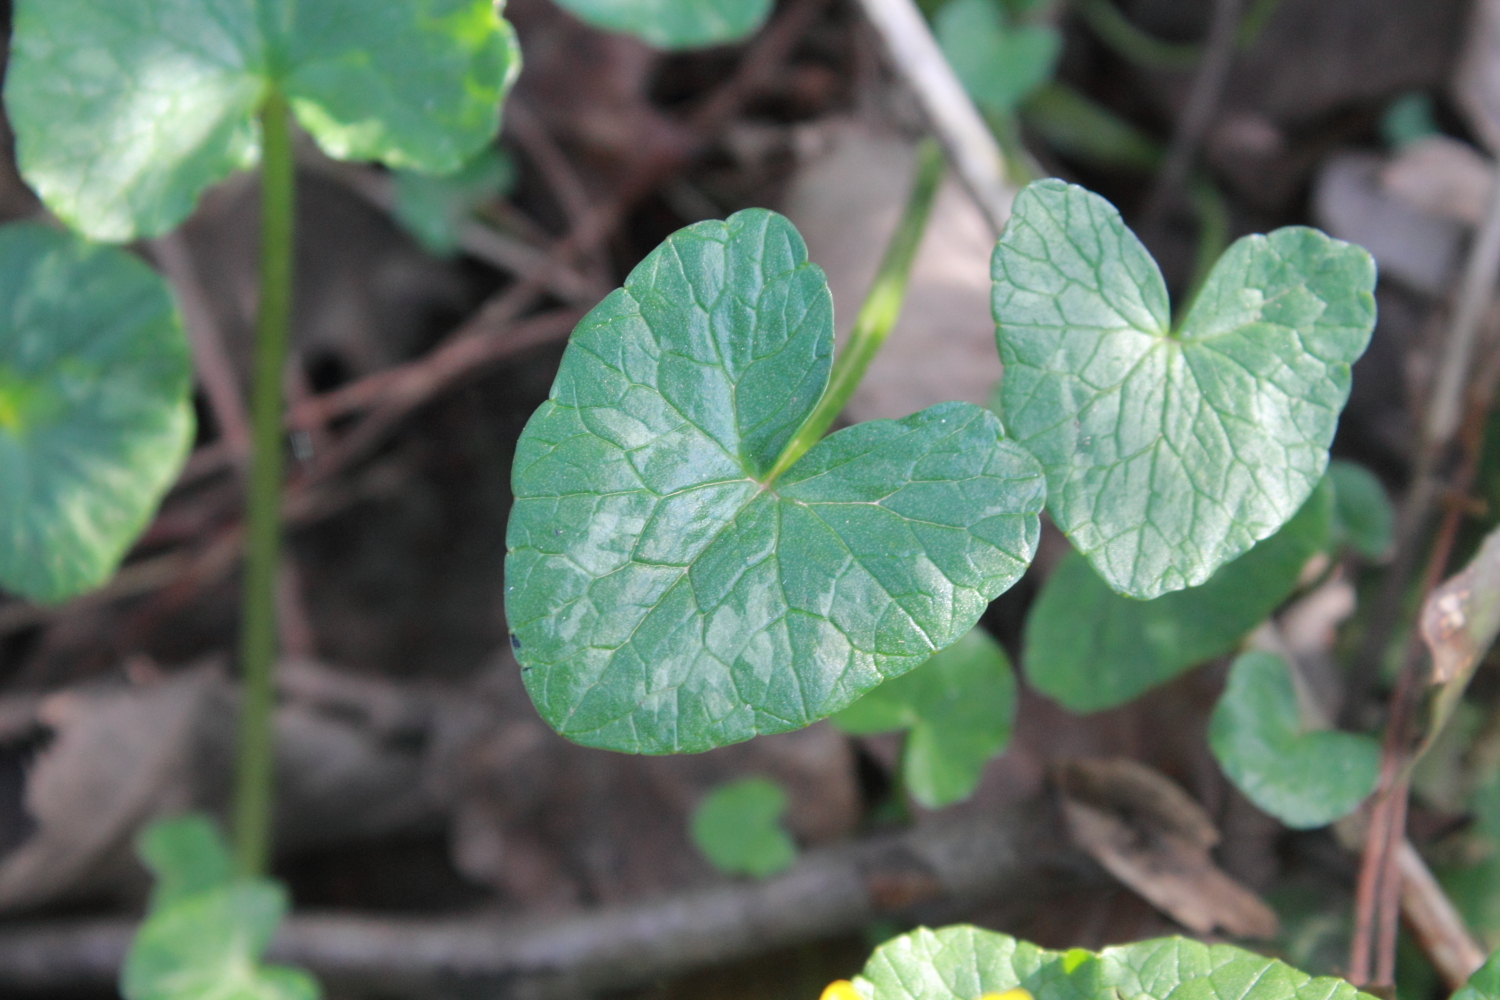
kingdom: Plantae
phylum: Tracheophyta
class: Magnoliopsida
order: Ranunculales
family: Ranunculaceae
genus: Ficaria
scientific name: Ficaria verna
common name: Lesser celandine
